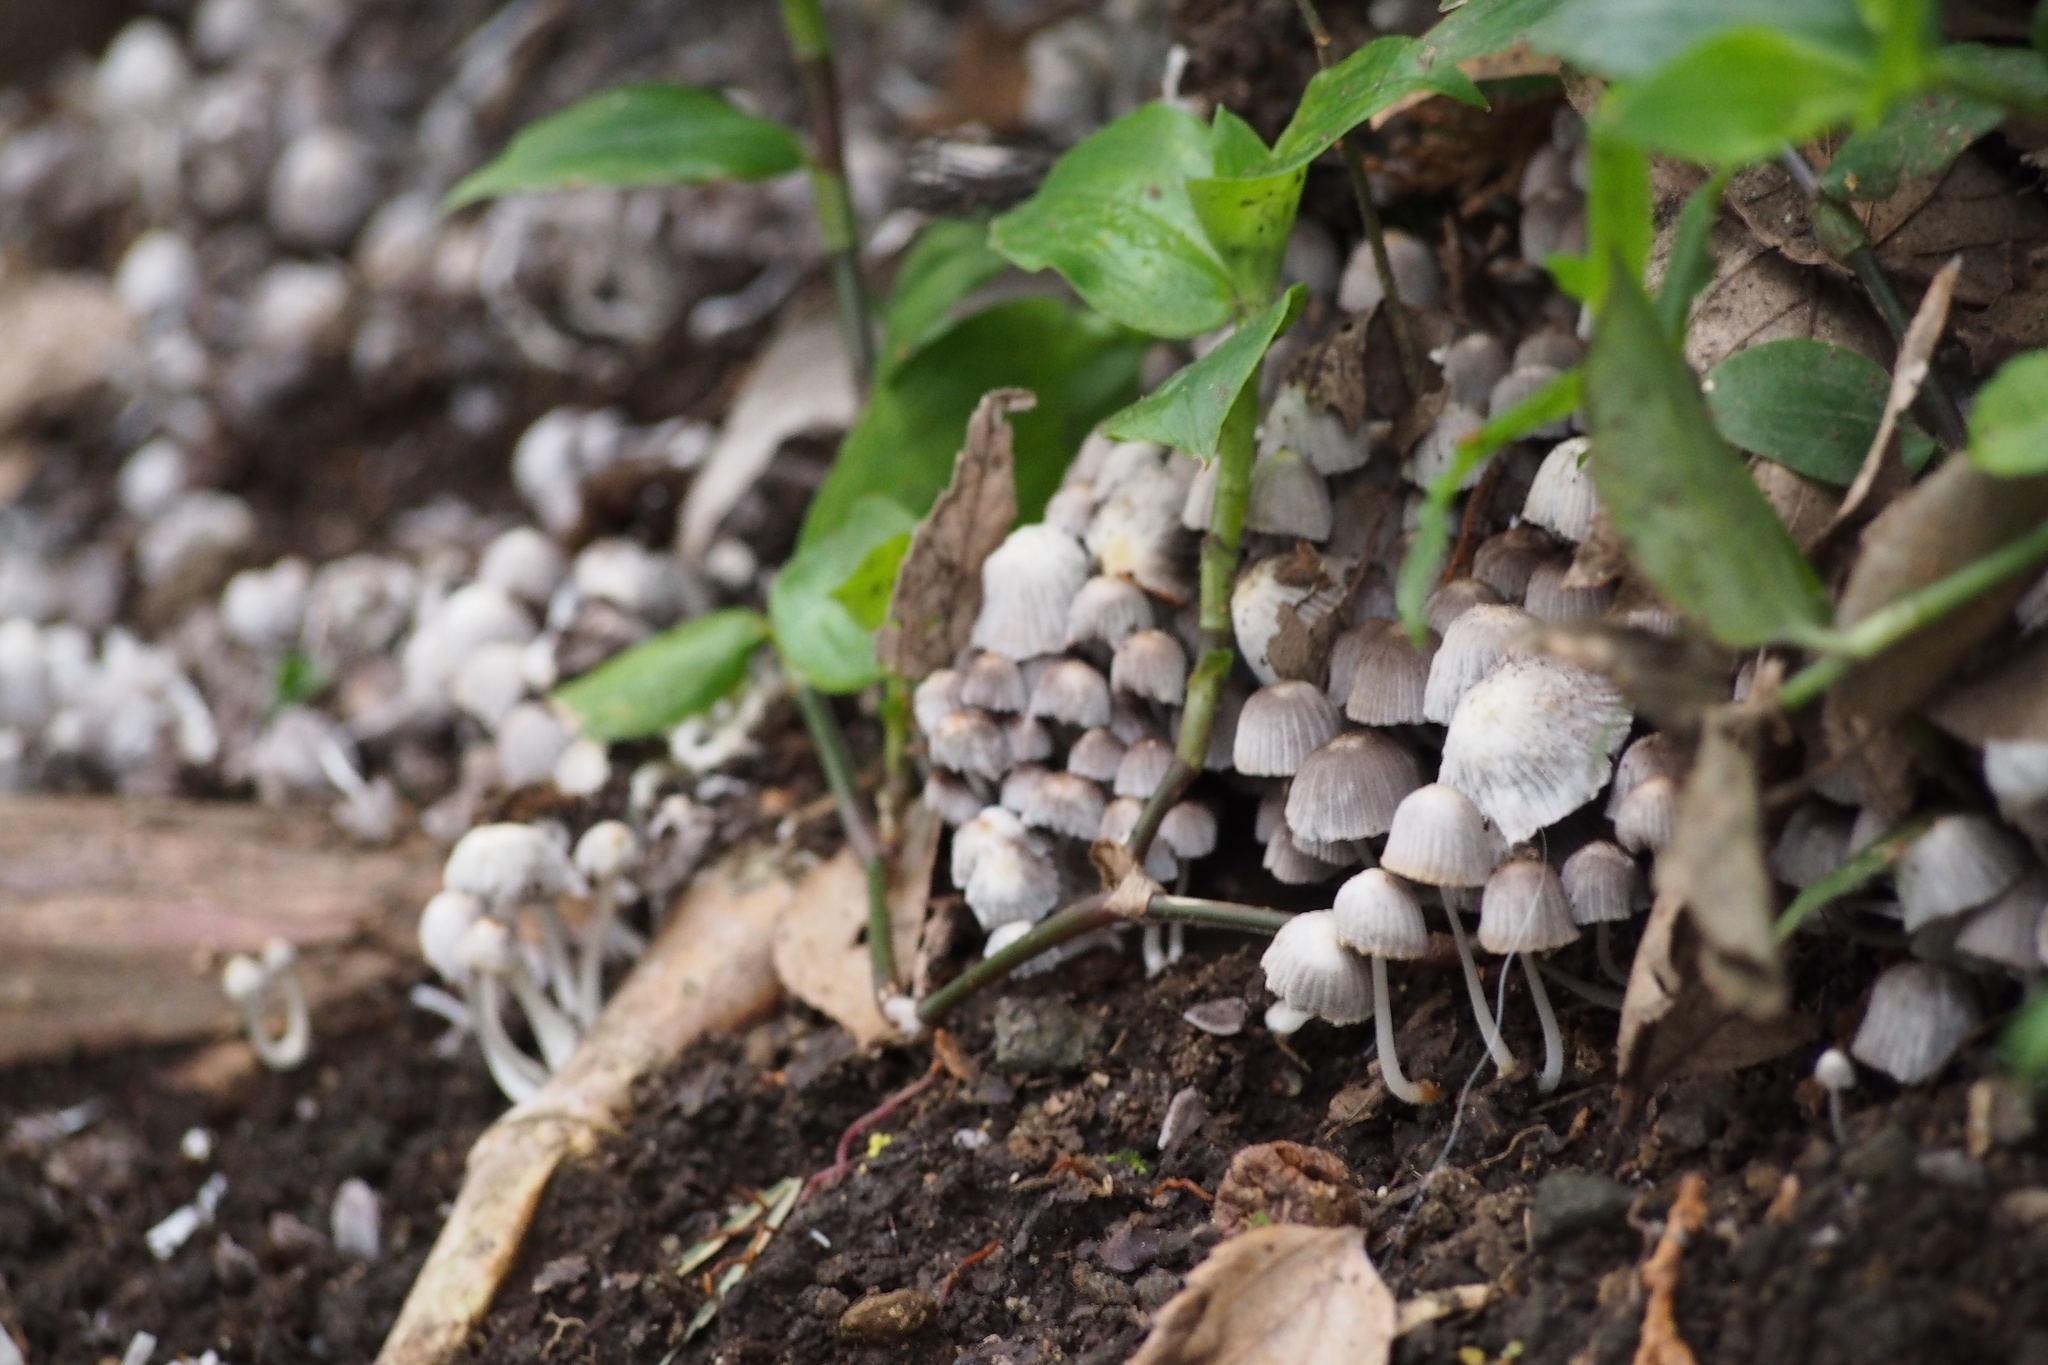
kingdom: Fungi
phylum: Basidiomycota
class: Agaricomycetes
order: Agaricales
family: Psathyrellaceae
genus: Coprinellus
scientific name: Coprinellus disseminatus
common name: Fairies' bonnets
